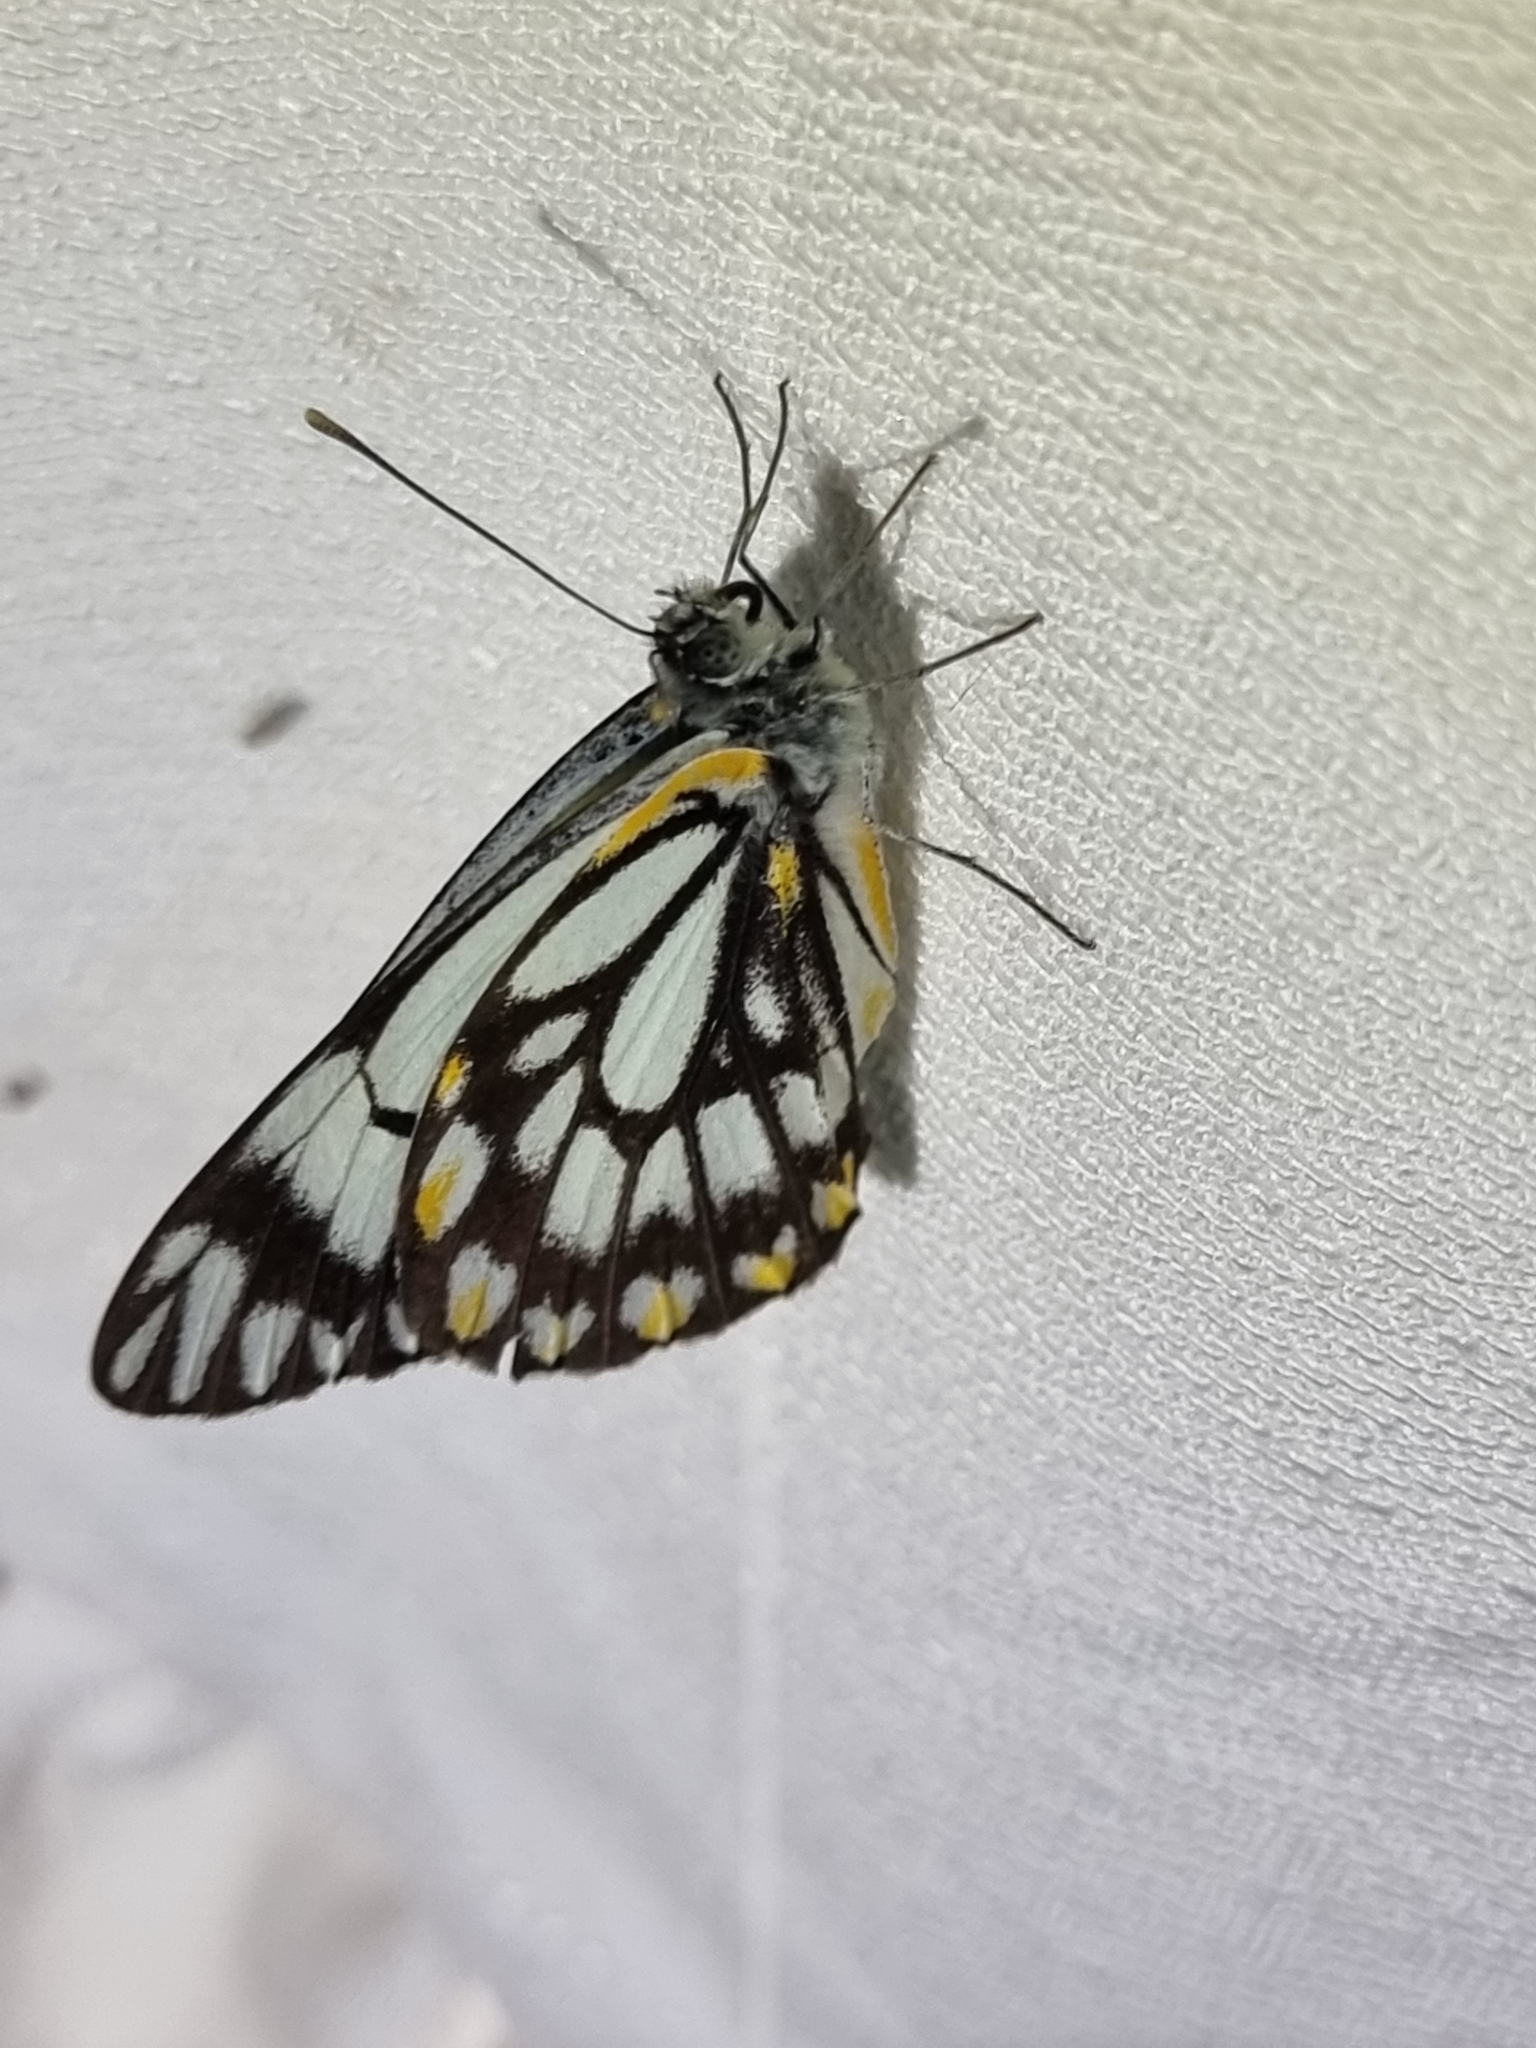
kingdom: Animalia
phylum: Arthropoda
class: Insecta
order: Lepidoptera
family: Pieridae
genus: Belenois
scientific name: Belenois java
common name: Caper white
